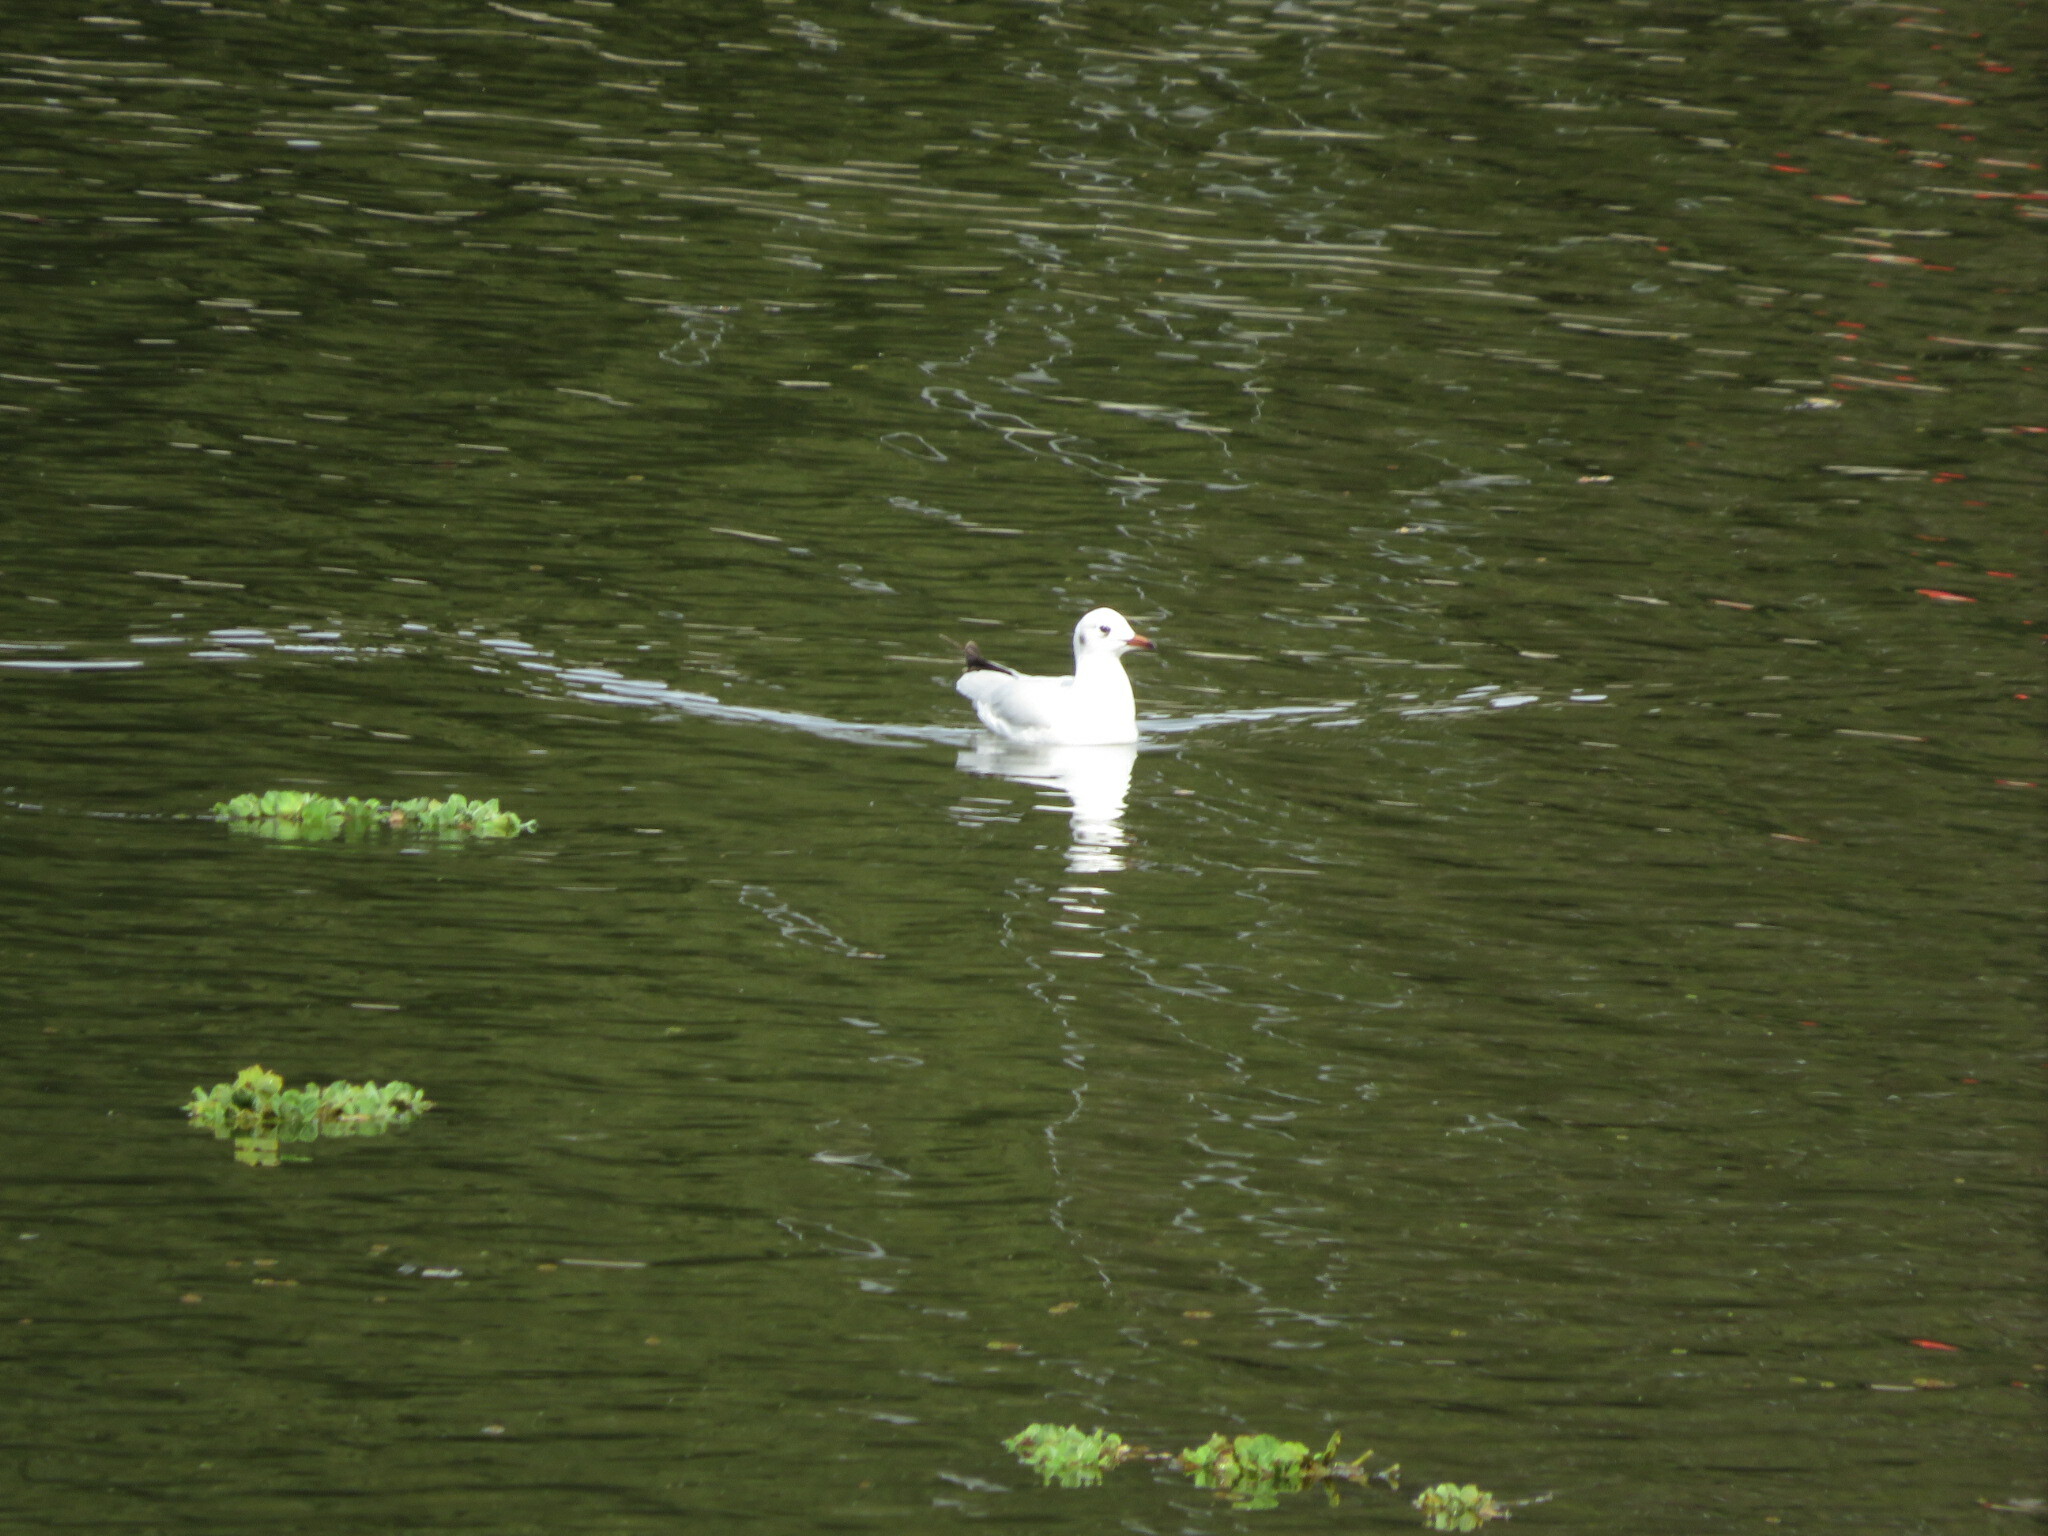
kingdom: Animalia
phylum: Chordata
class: Aves
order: Charadriiformes
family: Laridae
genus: Chroicocephalus
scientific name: Chroicocephalus maculipennis
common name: Brown-hooded gull
